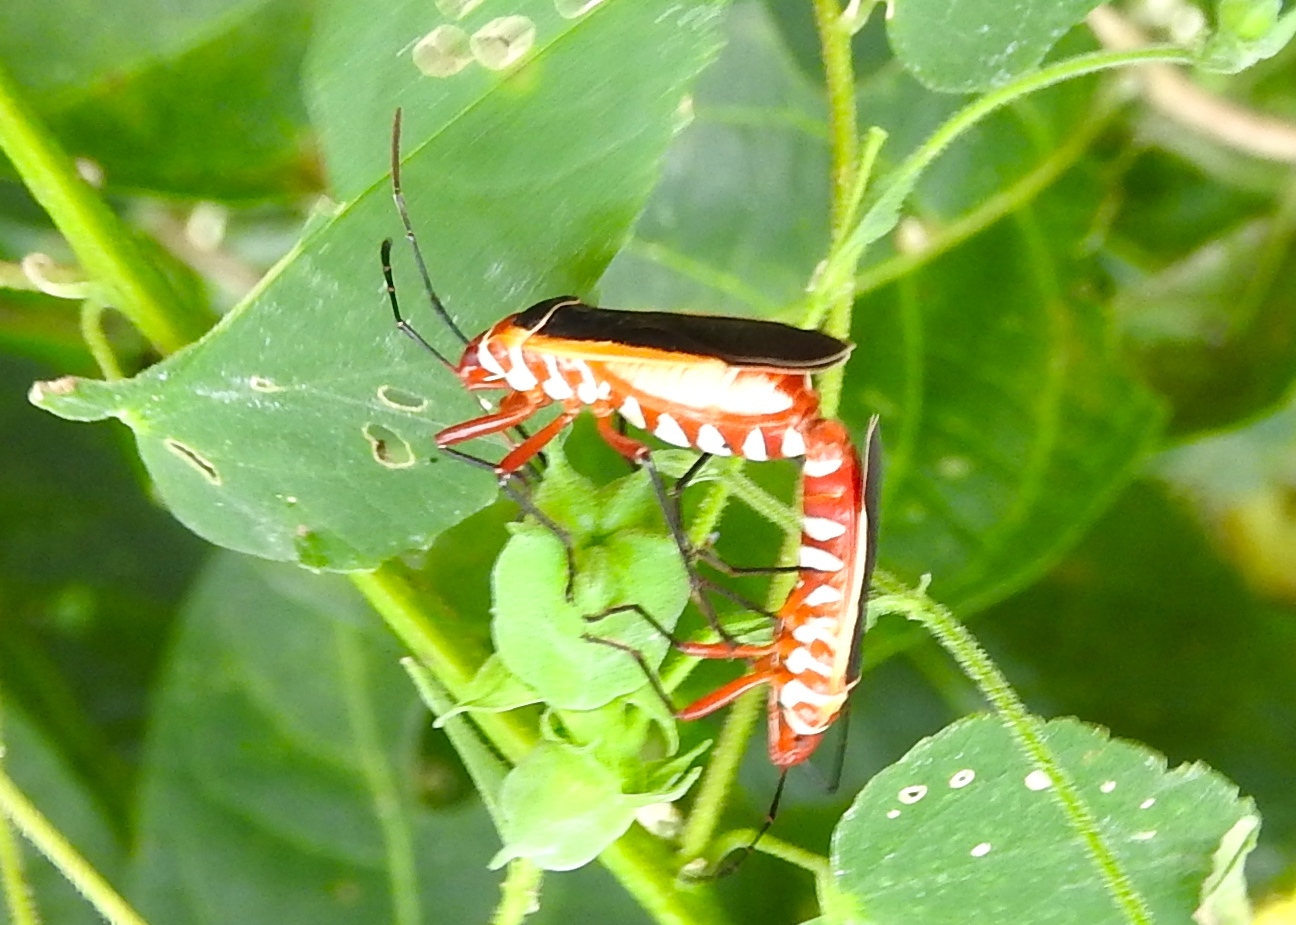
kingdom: Animalia
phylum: Arthropoda
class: Insecta
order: Hemiptera
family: Pyrrhocoridae
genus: Dysdercus
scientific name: Dysdercus obscuratus
